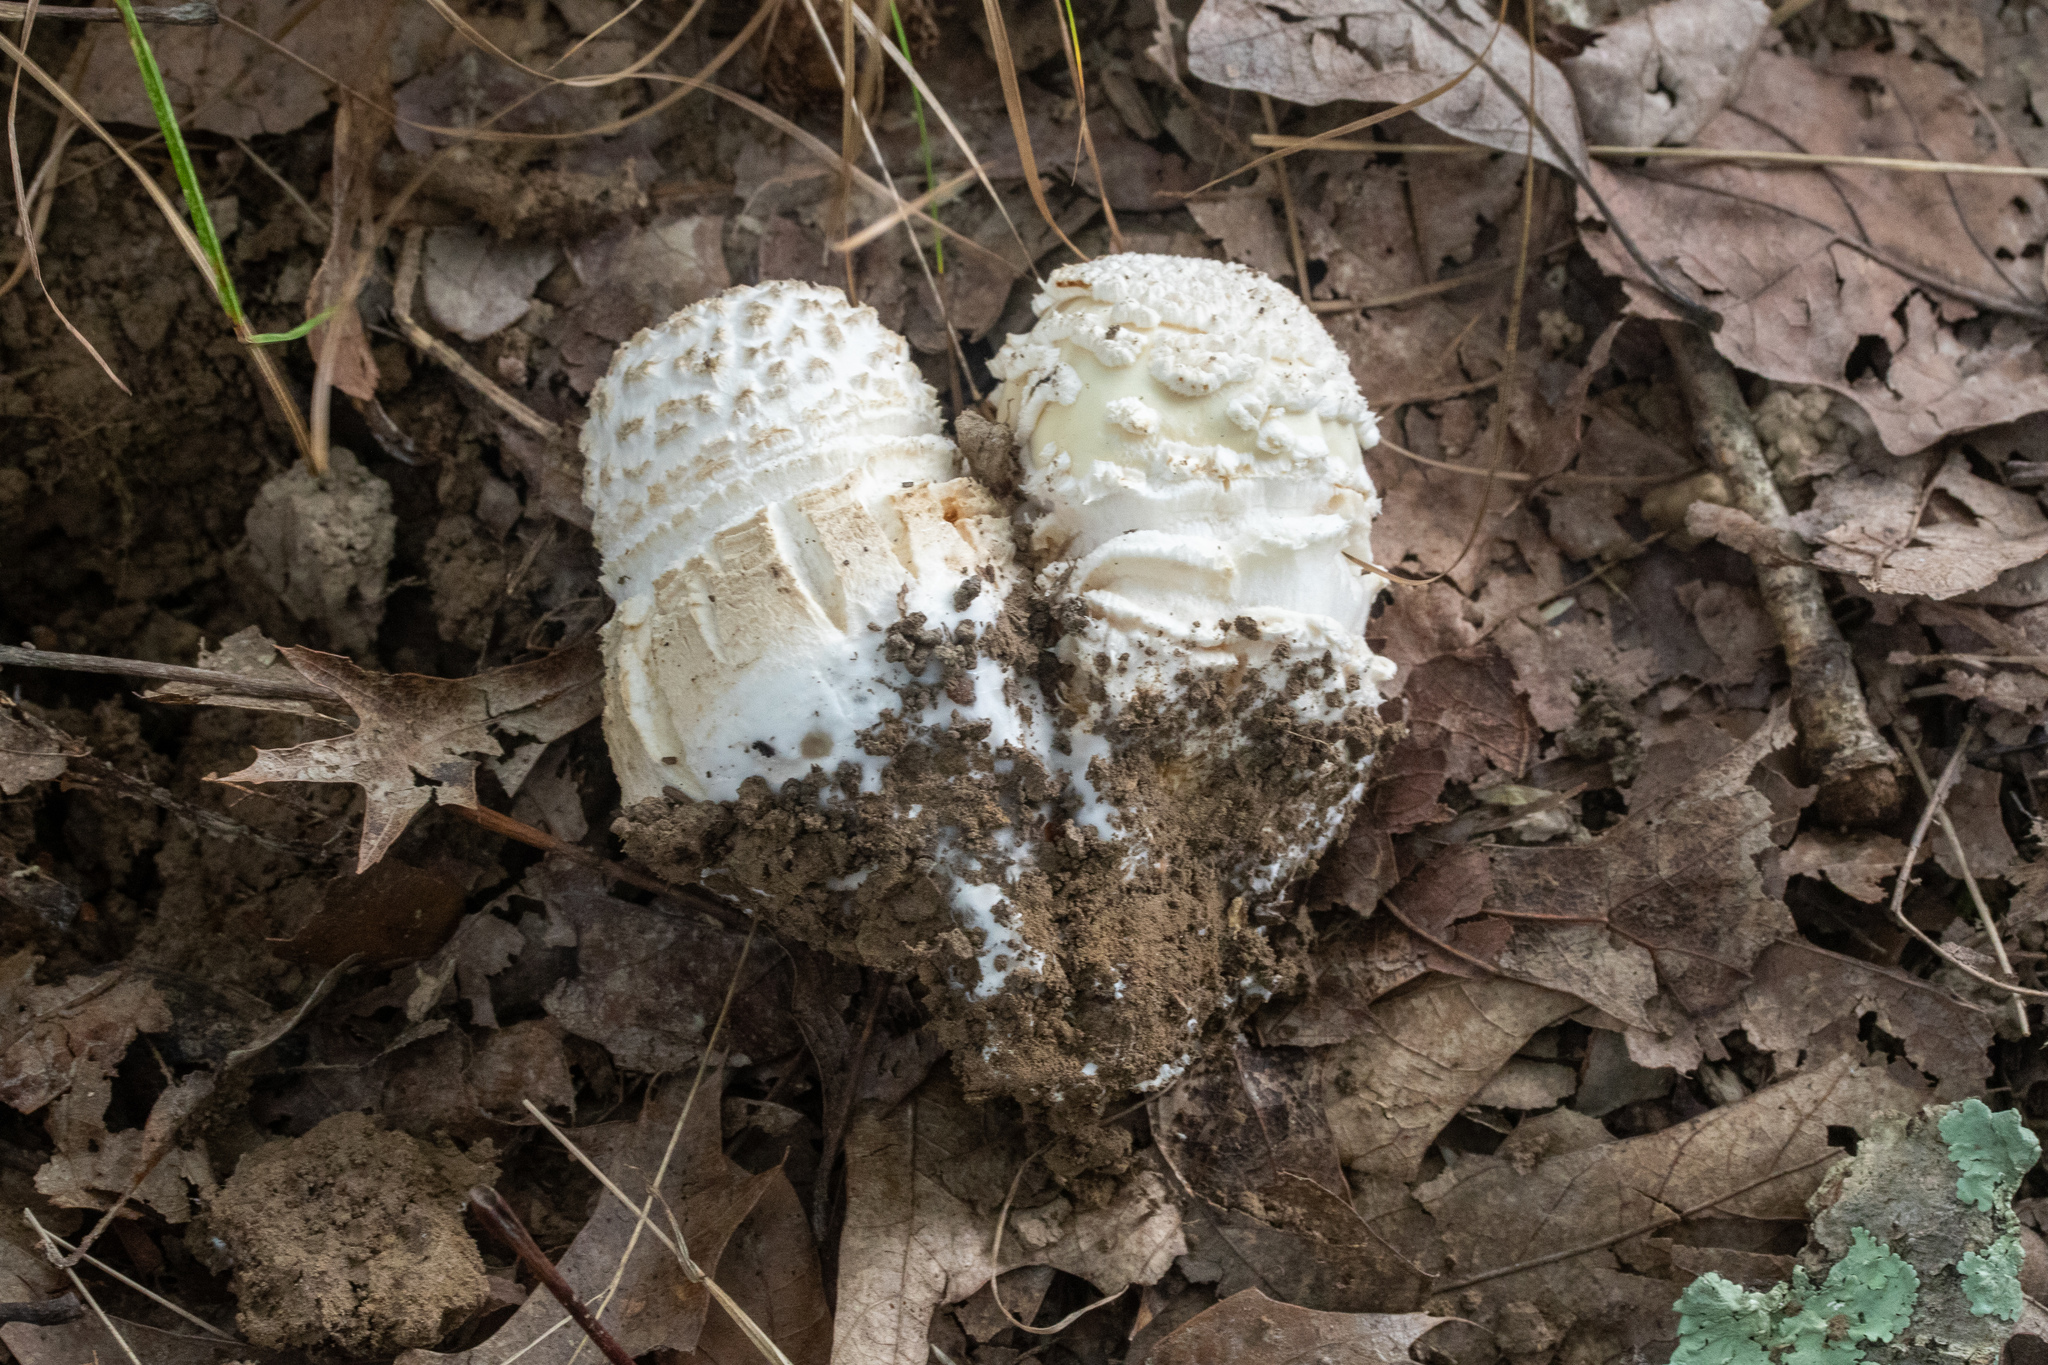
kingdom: Fungi
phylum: Basidiomycota
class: Agaricomycetes
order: Agaricales
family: Amanitaceae
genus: Amanita
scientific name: Amanita ravenelii
